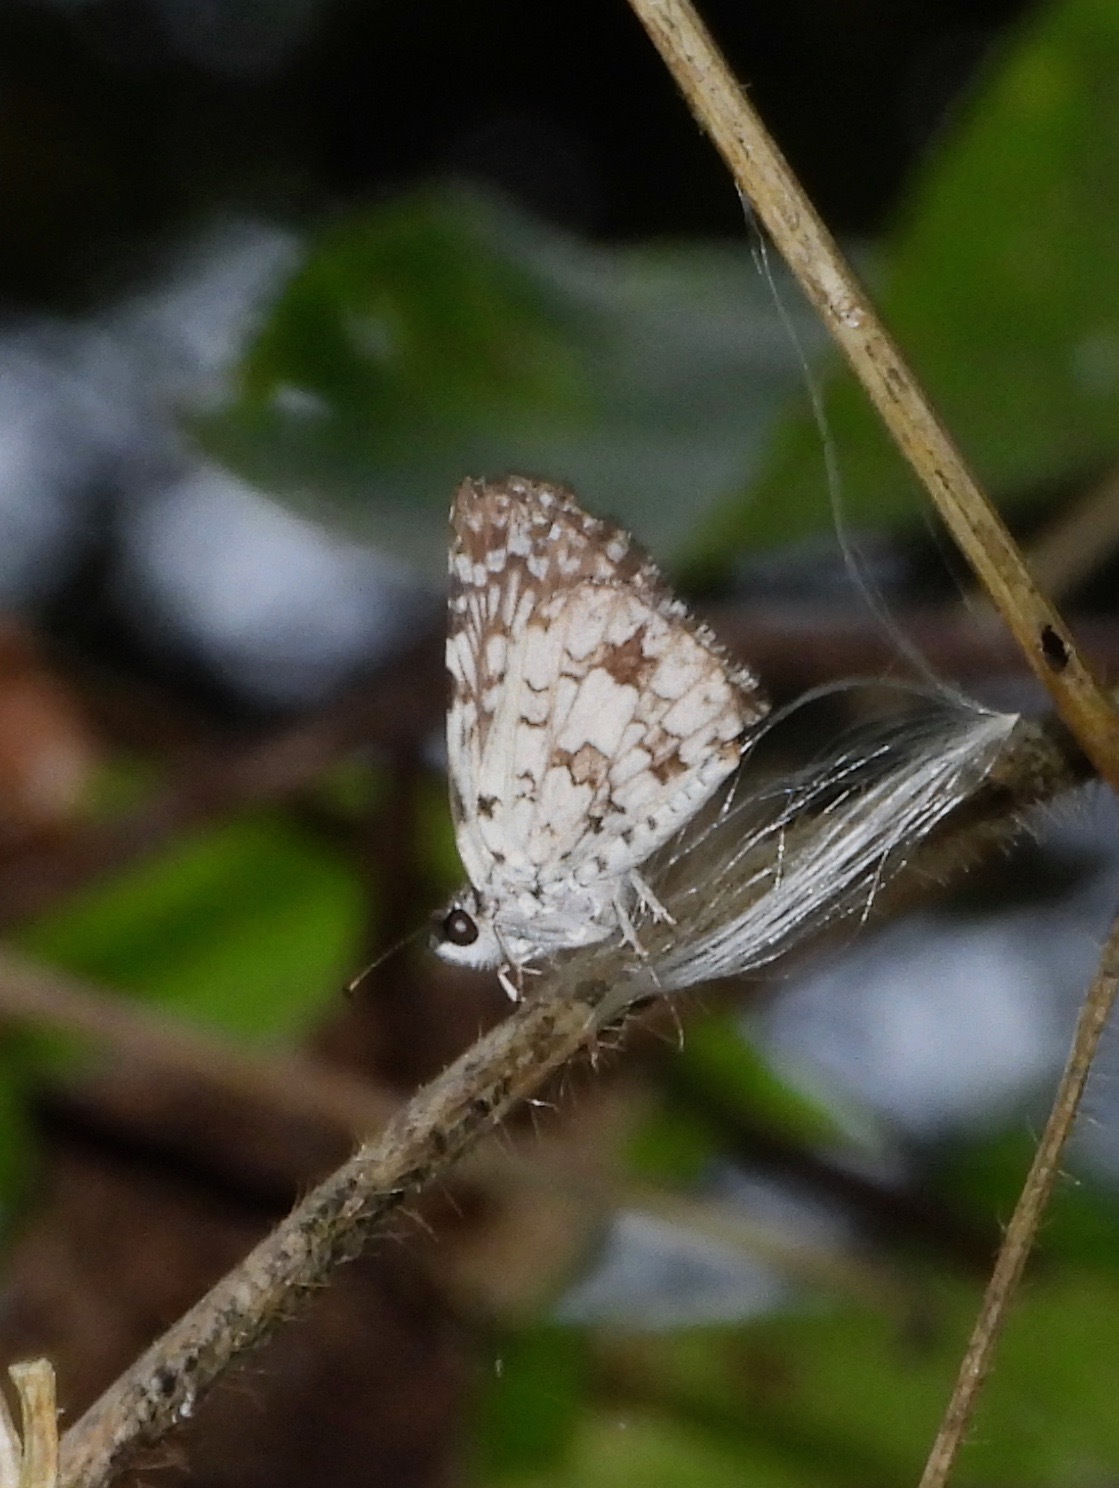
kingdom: Animalia
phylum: Arthropoda
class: Insecta
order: Lepidoptera
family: Hesperiidae
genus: Pyrgus
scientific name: Pyrgus oileus
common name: Tropical checkered-skipper
